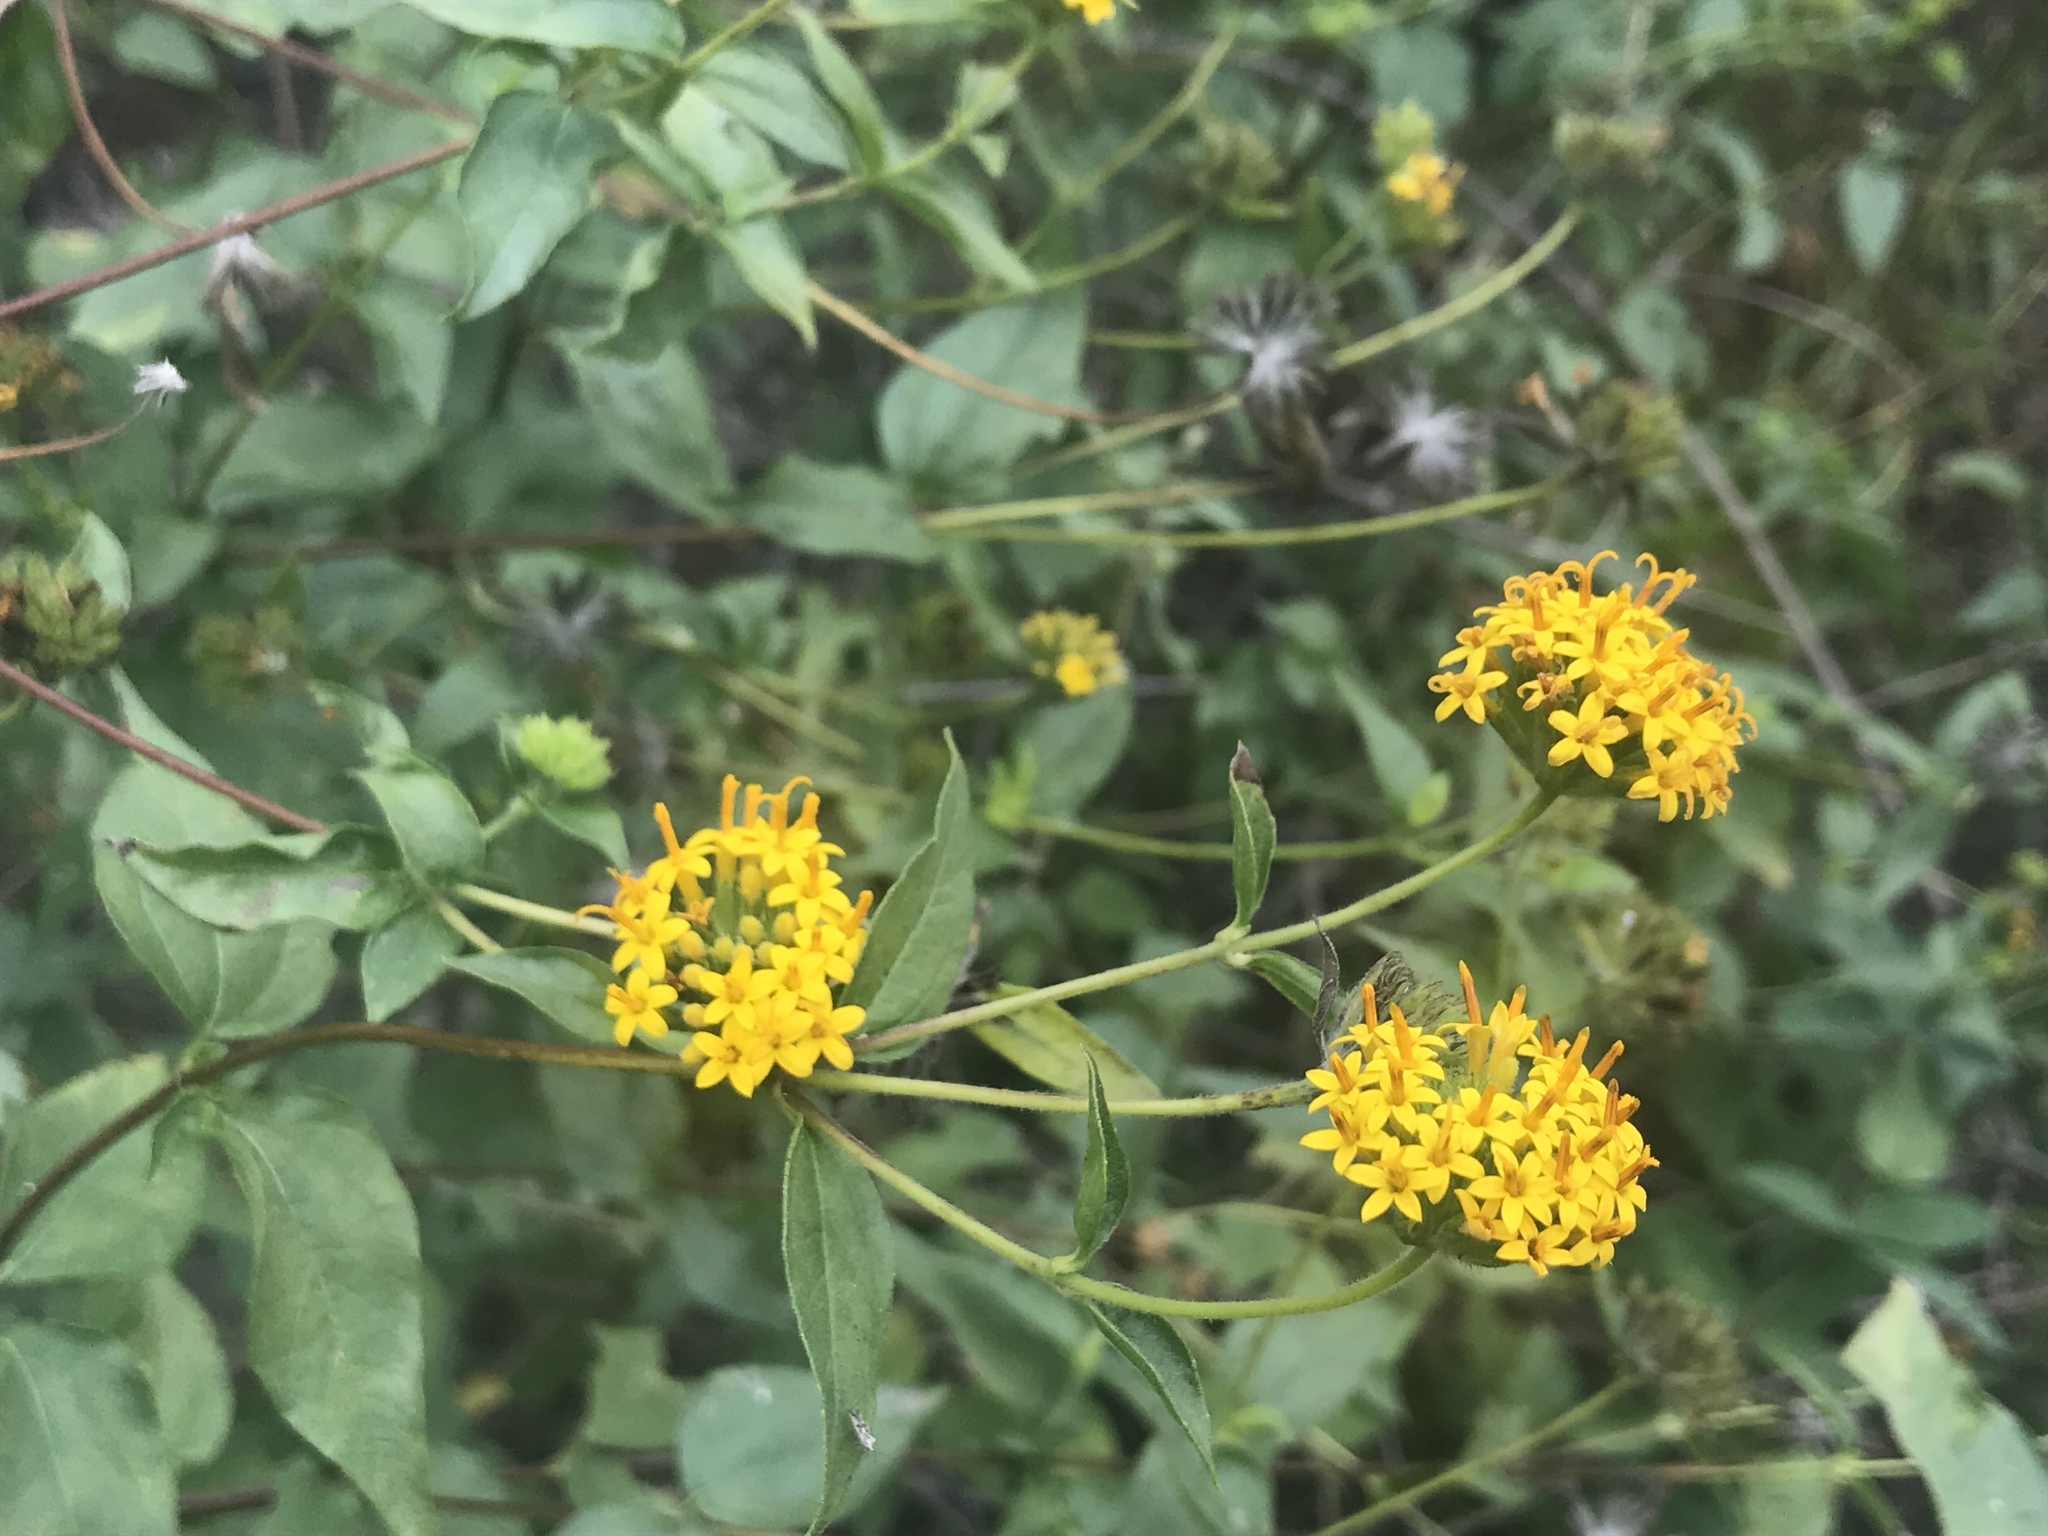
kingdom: Plantae
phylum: Tracheophyta
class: Magnoliopsida
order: Asterales
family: Asteraceae
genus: Lagascea
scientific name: Lagascea decipiens
